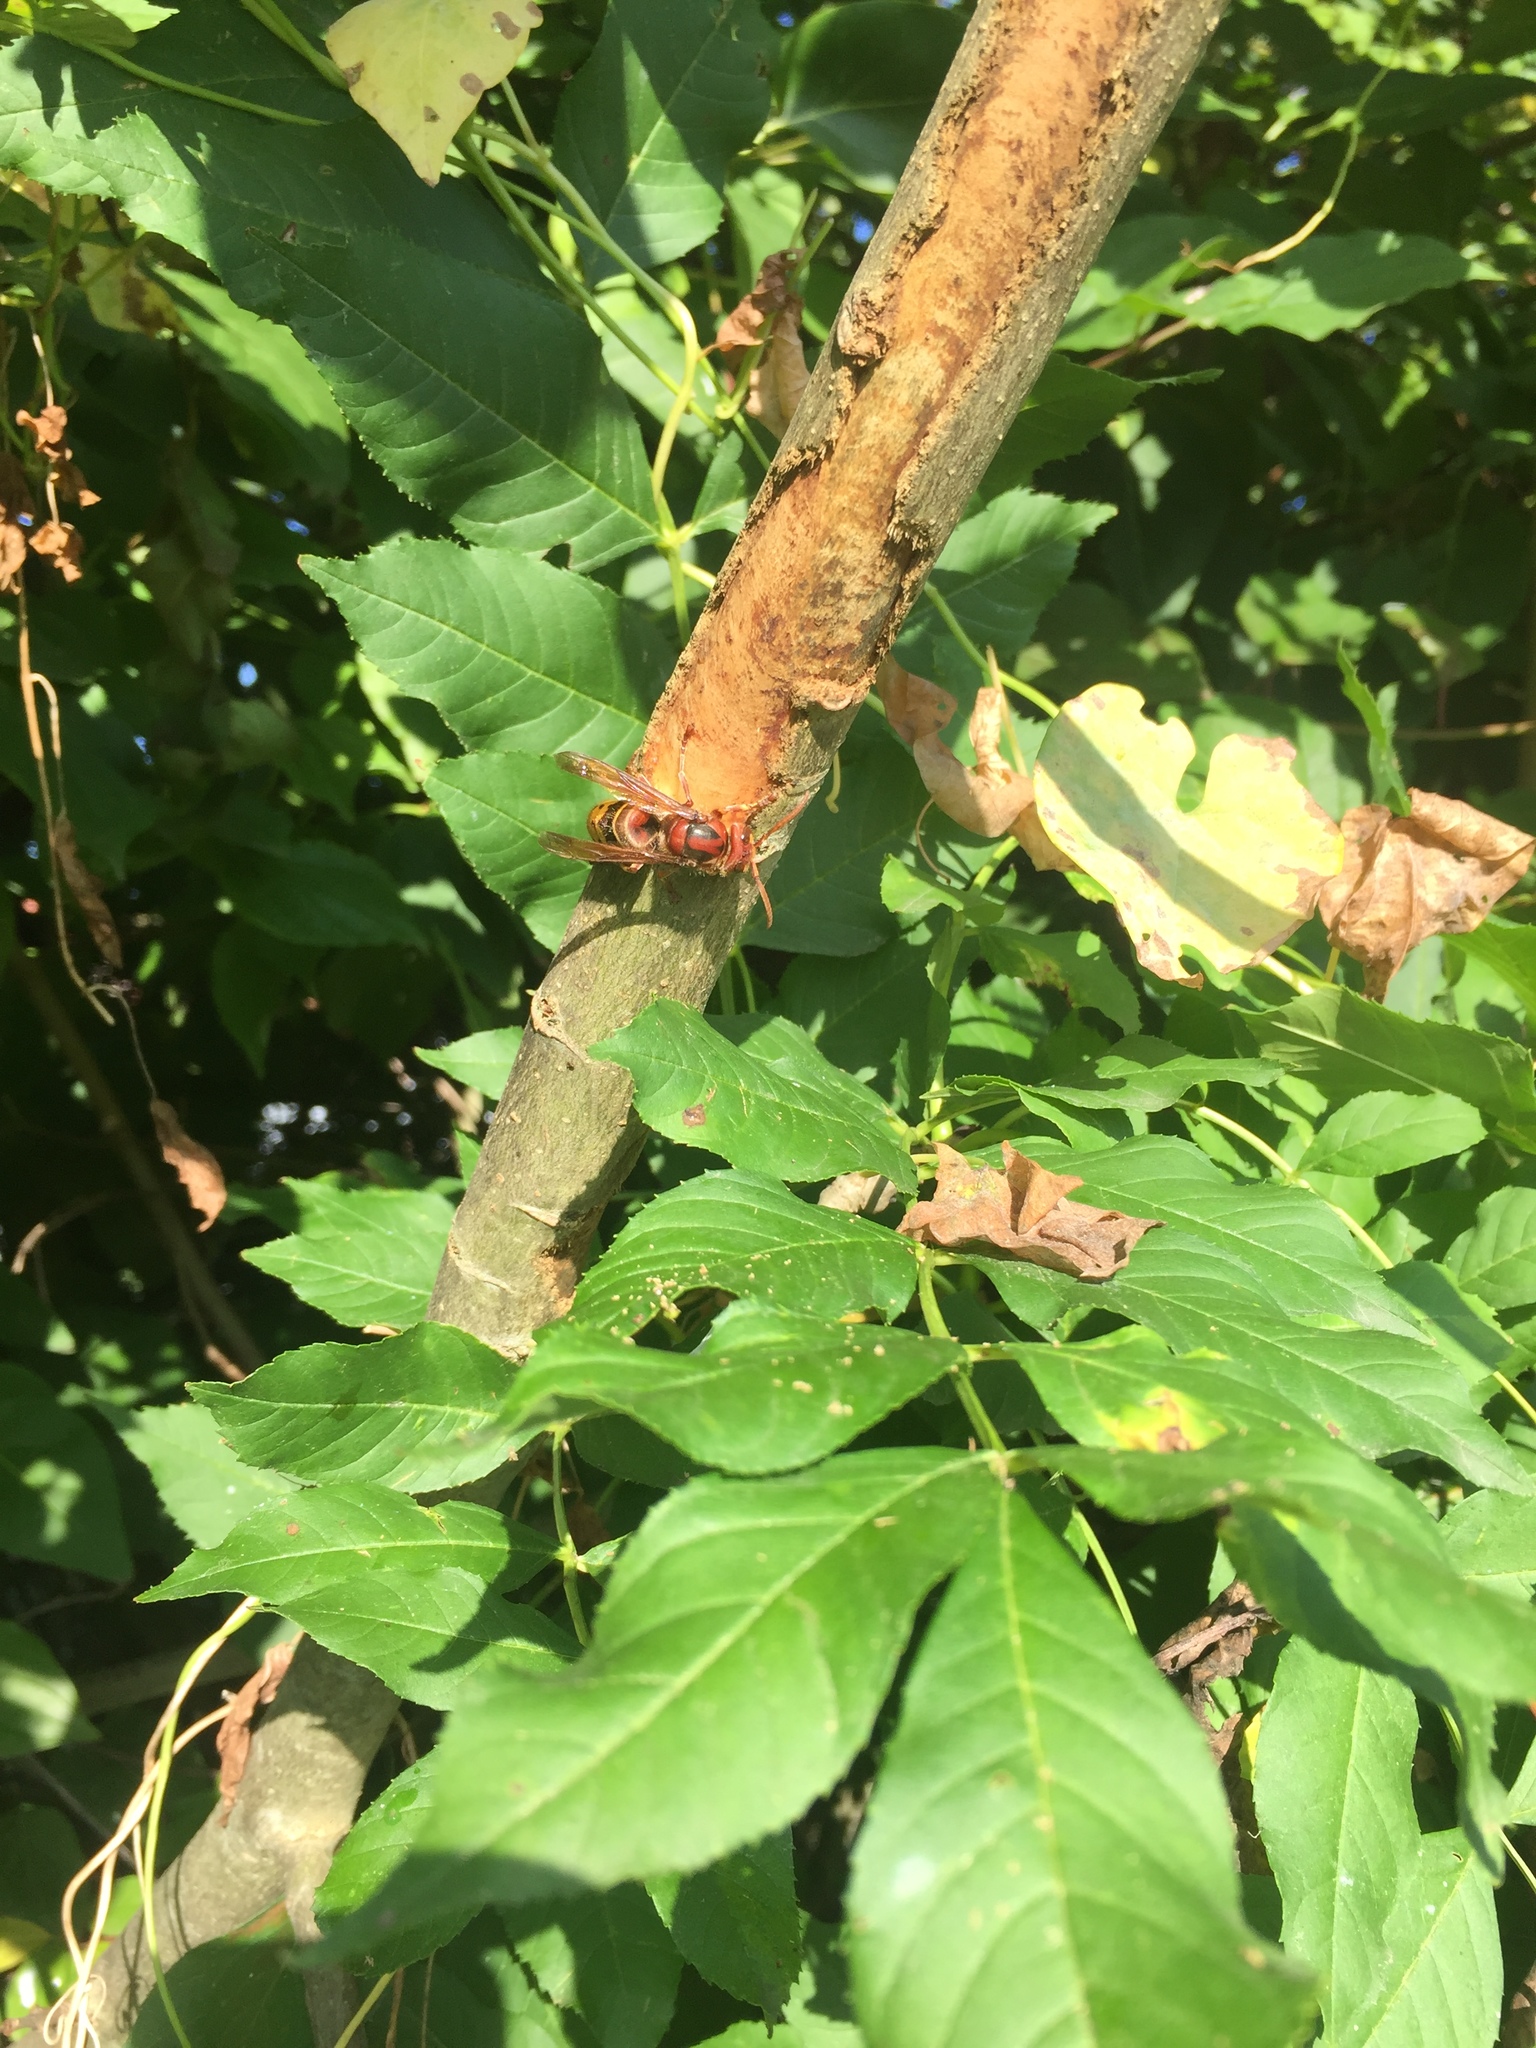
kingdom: Animalia
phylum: Arthropoda
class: Insecta
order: Hymenoptera
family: Vespidae
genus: Vespa
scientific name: Vespa crabro
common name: Hornet
